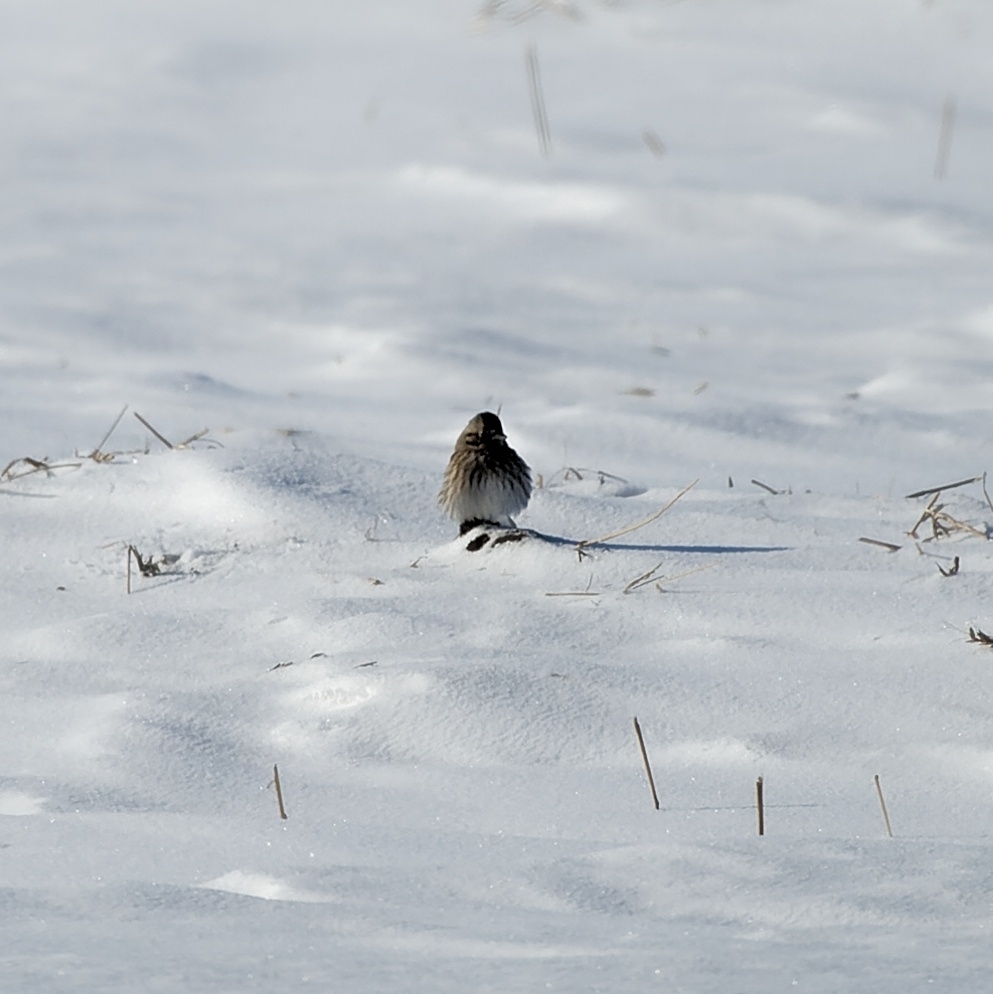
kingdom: Animalia
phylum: Chordata
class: Aves
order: Passeriformes
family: Emberizidae
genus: Emberiza
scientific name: Emberiza leucocephalos
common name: Pine bunting
